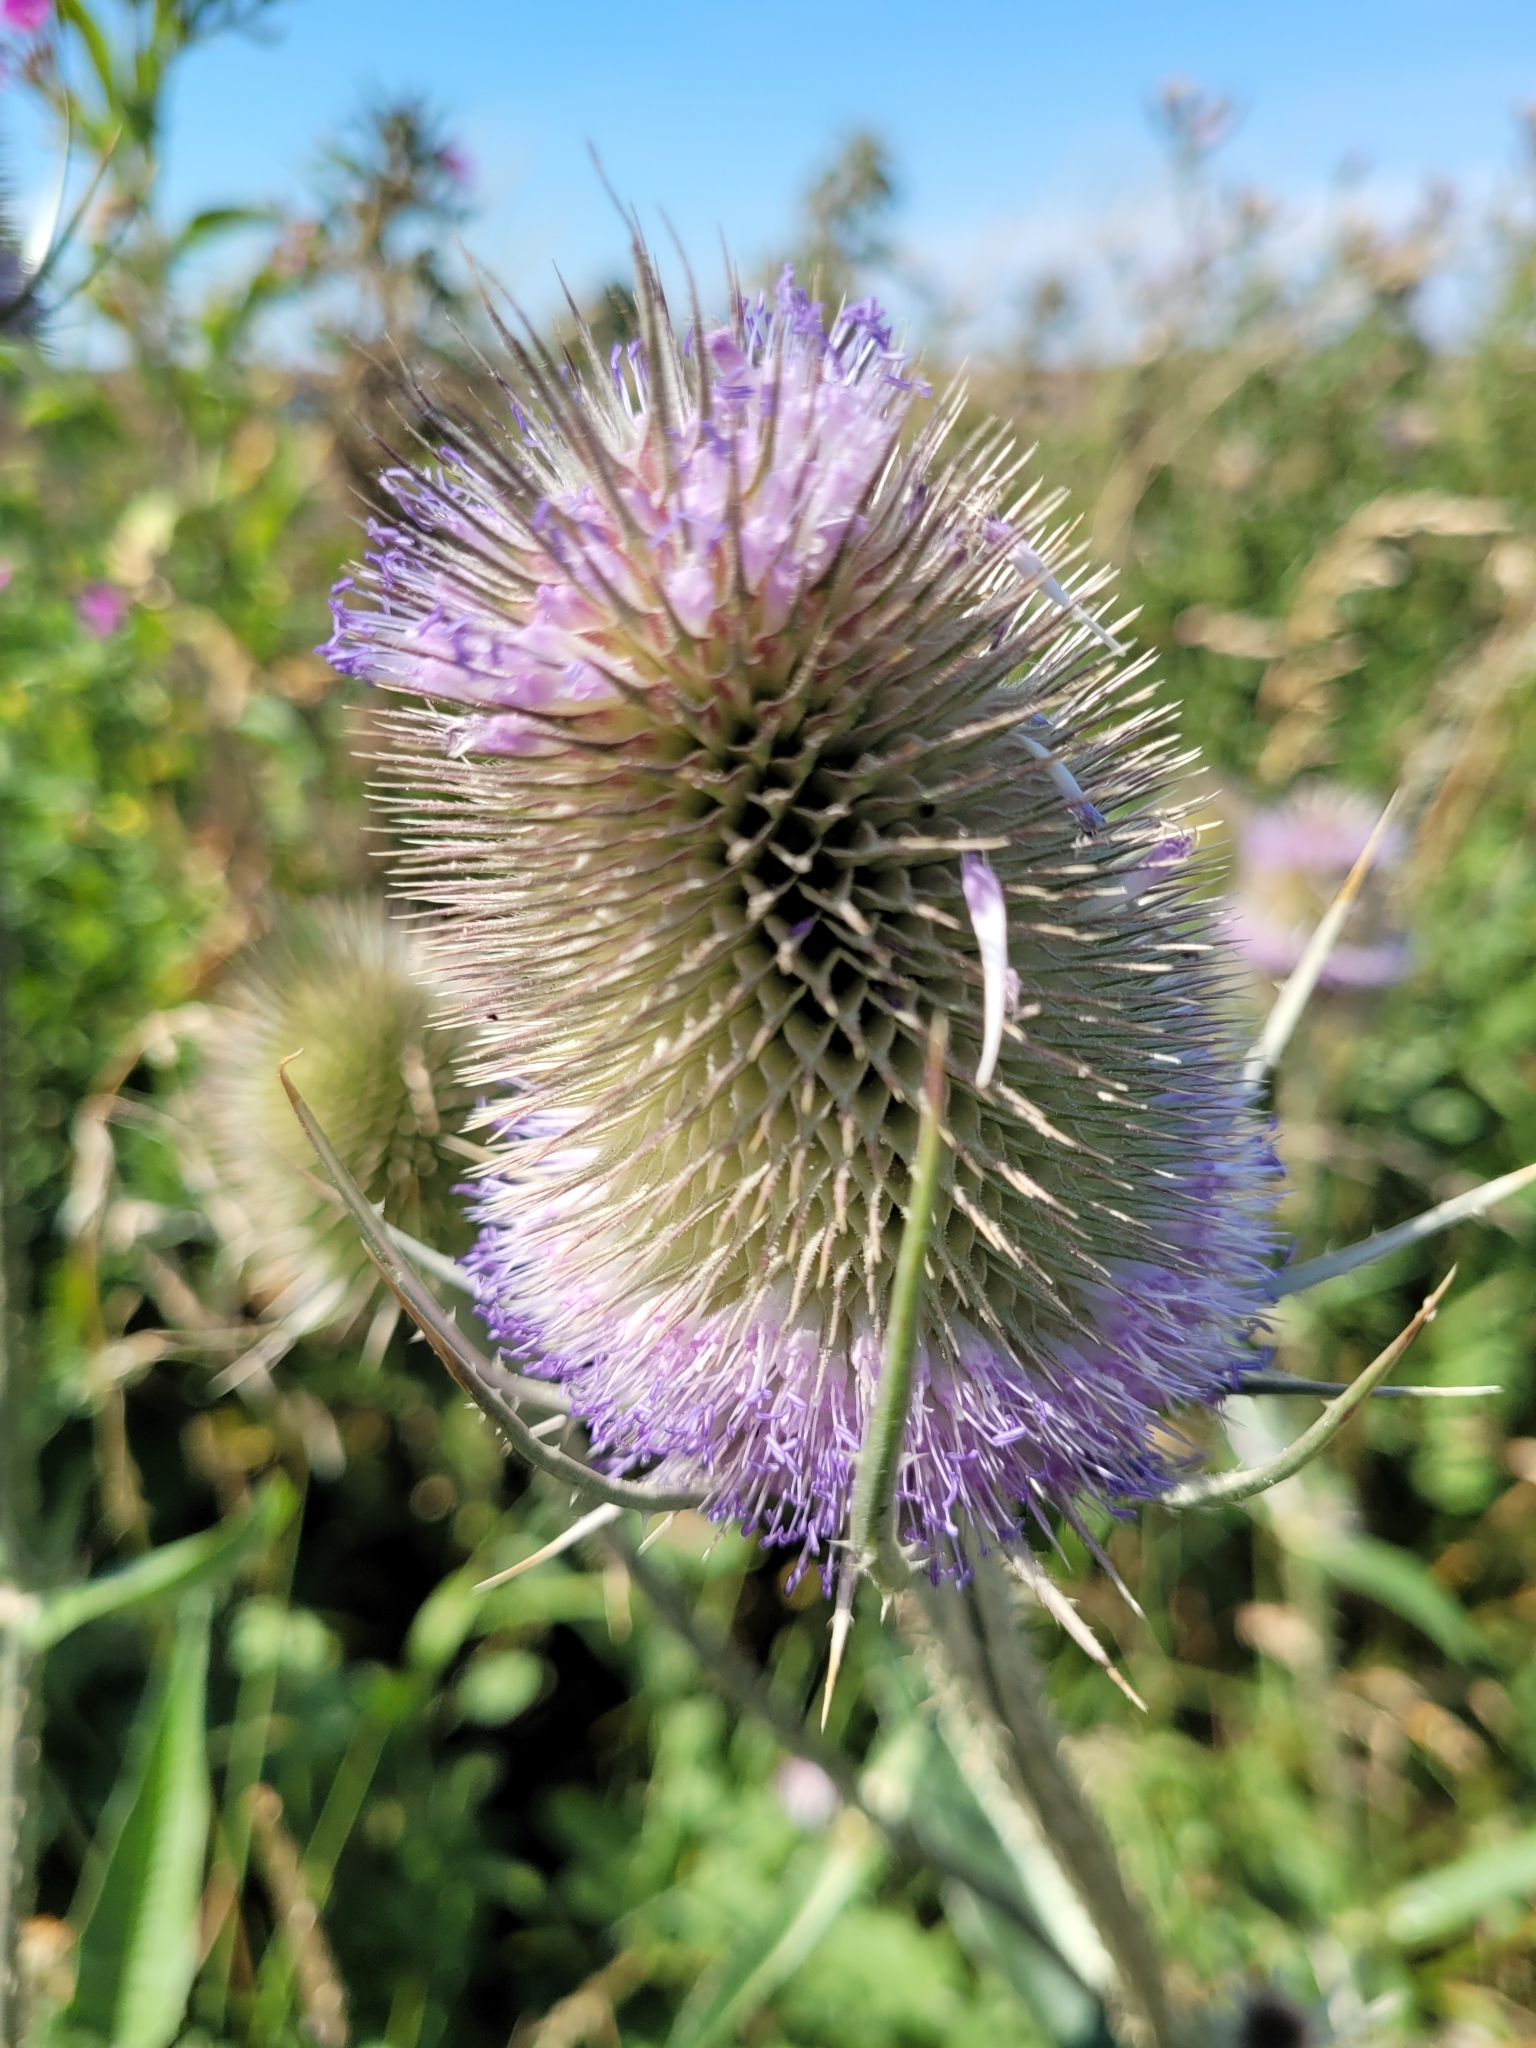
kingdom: Plantae
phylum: Tracheophyta
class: Magnoliopsida
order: Dipsacales
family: Caprifoliaceae
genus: Dipsacus
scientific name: Dipsacus fullonum
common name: Teasel
